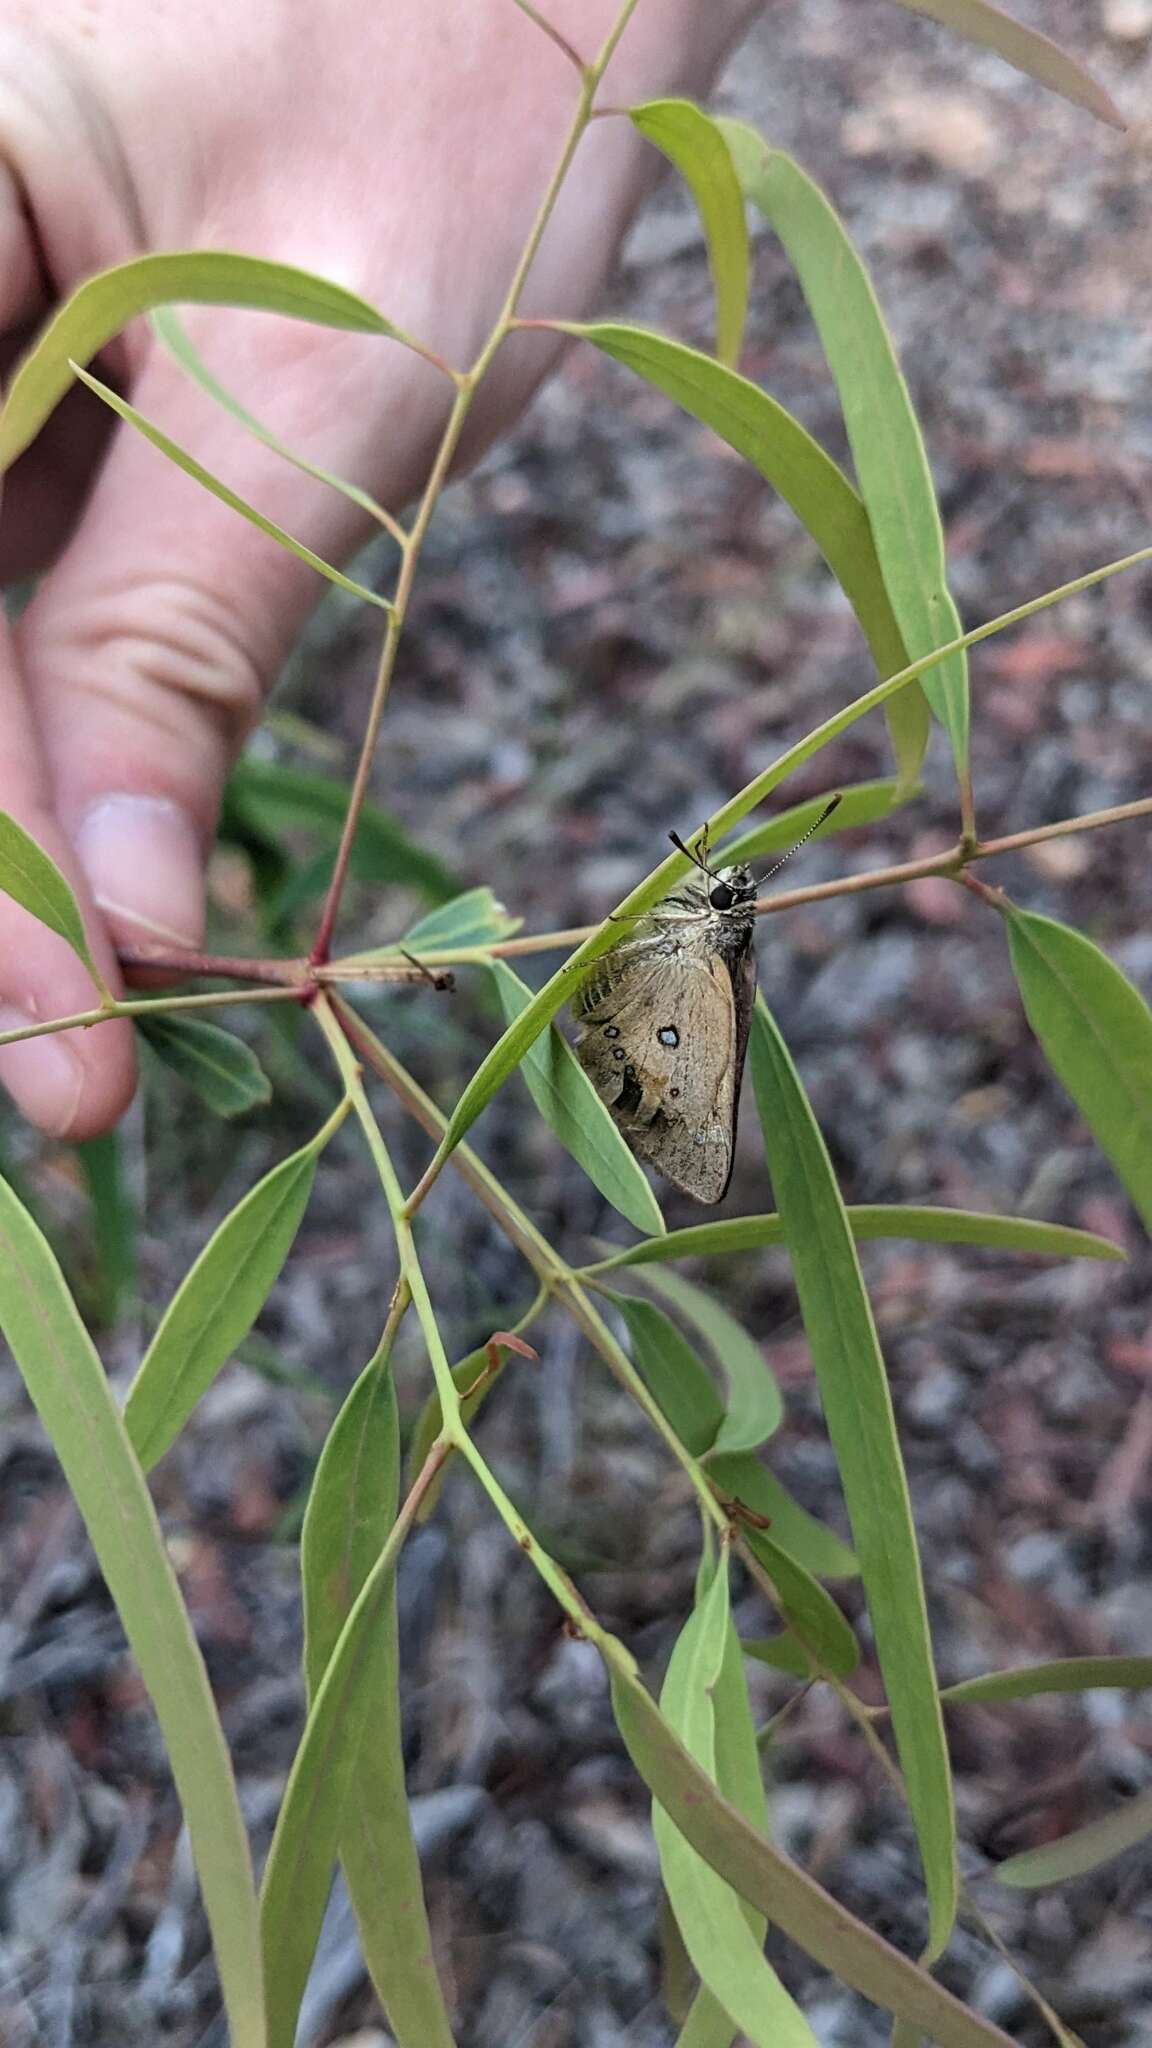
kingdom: Animalia
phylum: Arthropoda
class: Insecta
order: Lepidoptera
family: Hesperiidae
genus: Trapezites
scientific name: Trapezites eliena
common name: Eliena skipper
